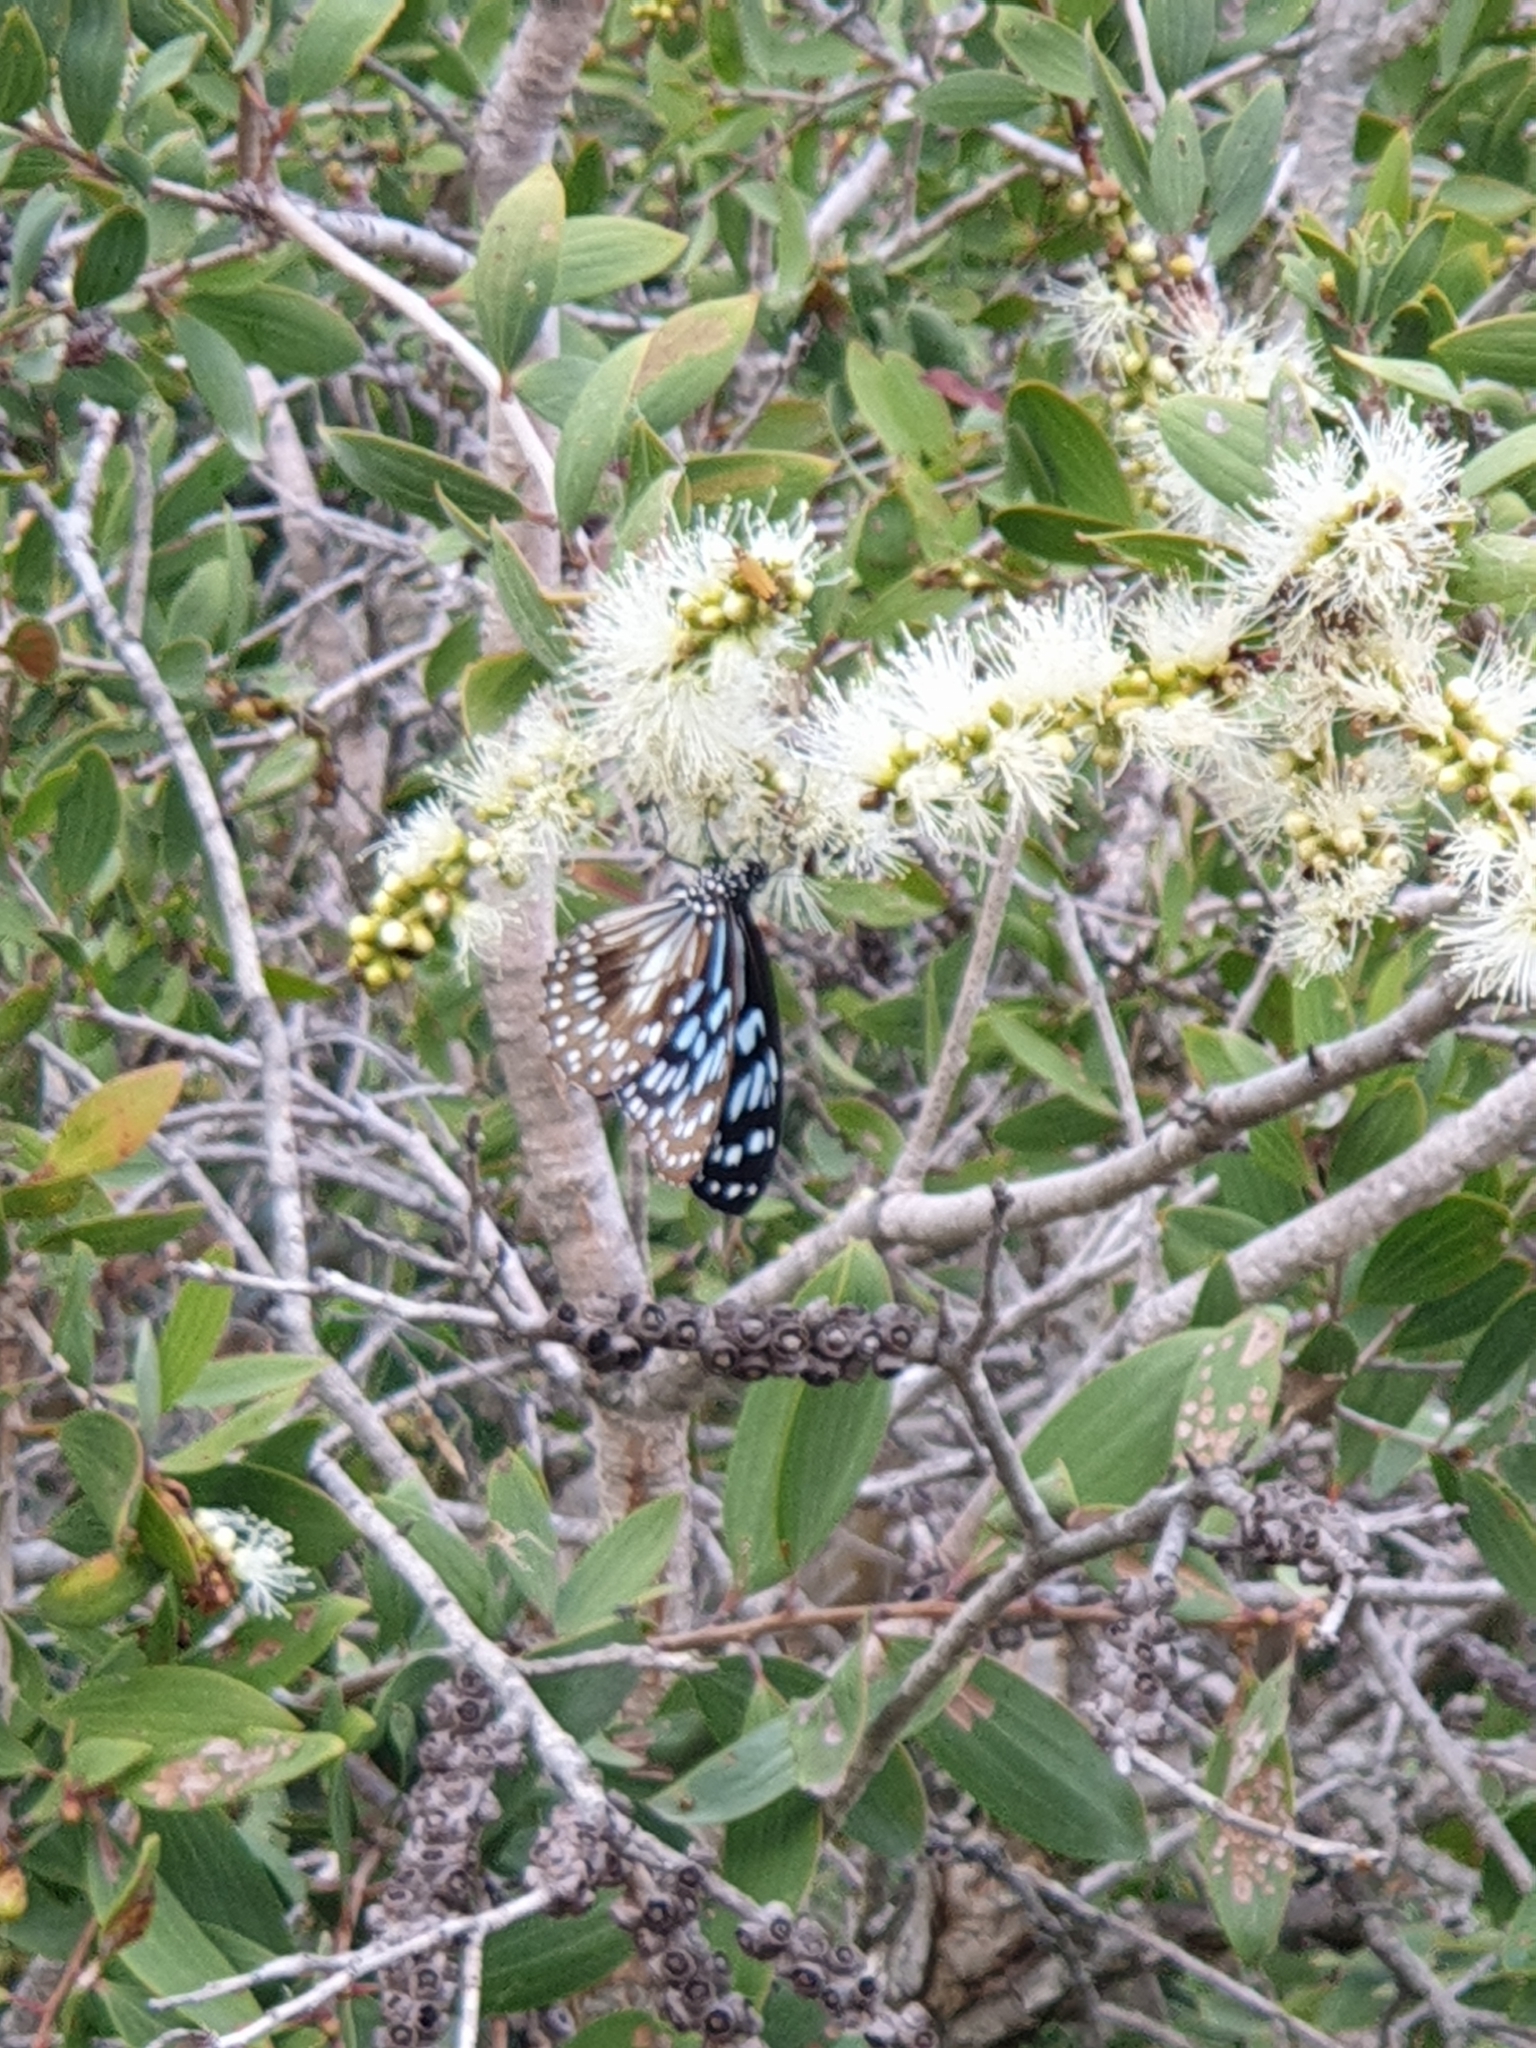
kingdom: Animalia
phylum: Arthropoda
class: Insecta
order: Lepidoptera
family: Nymphalidae
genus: Tirumala
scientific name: Tirumala hamata
